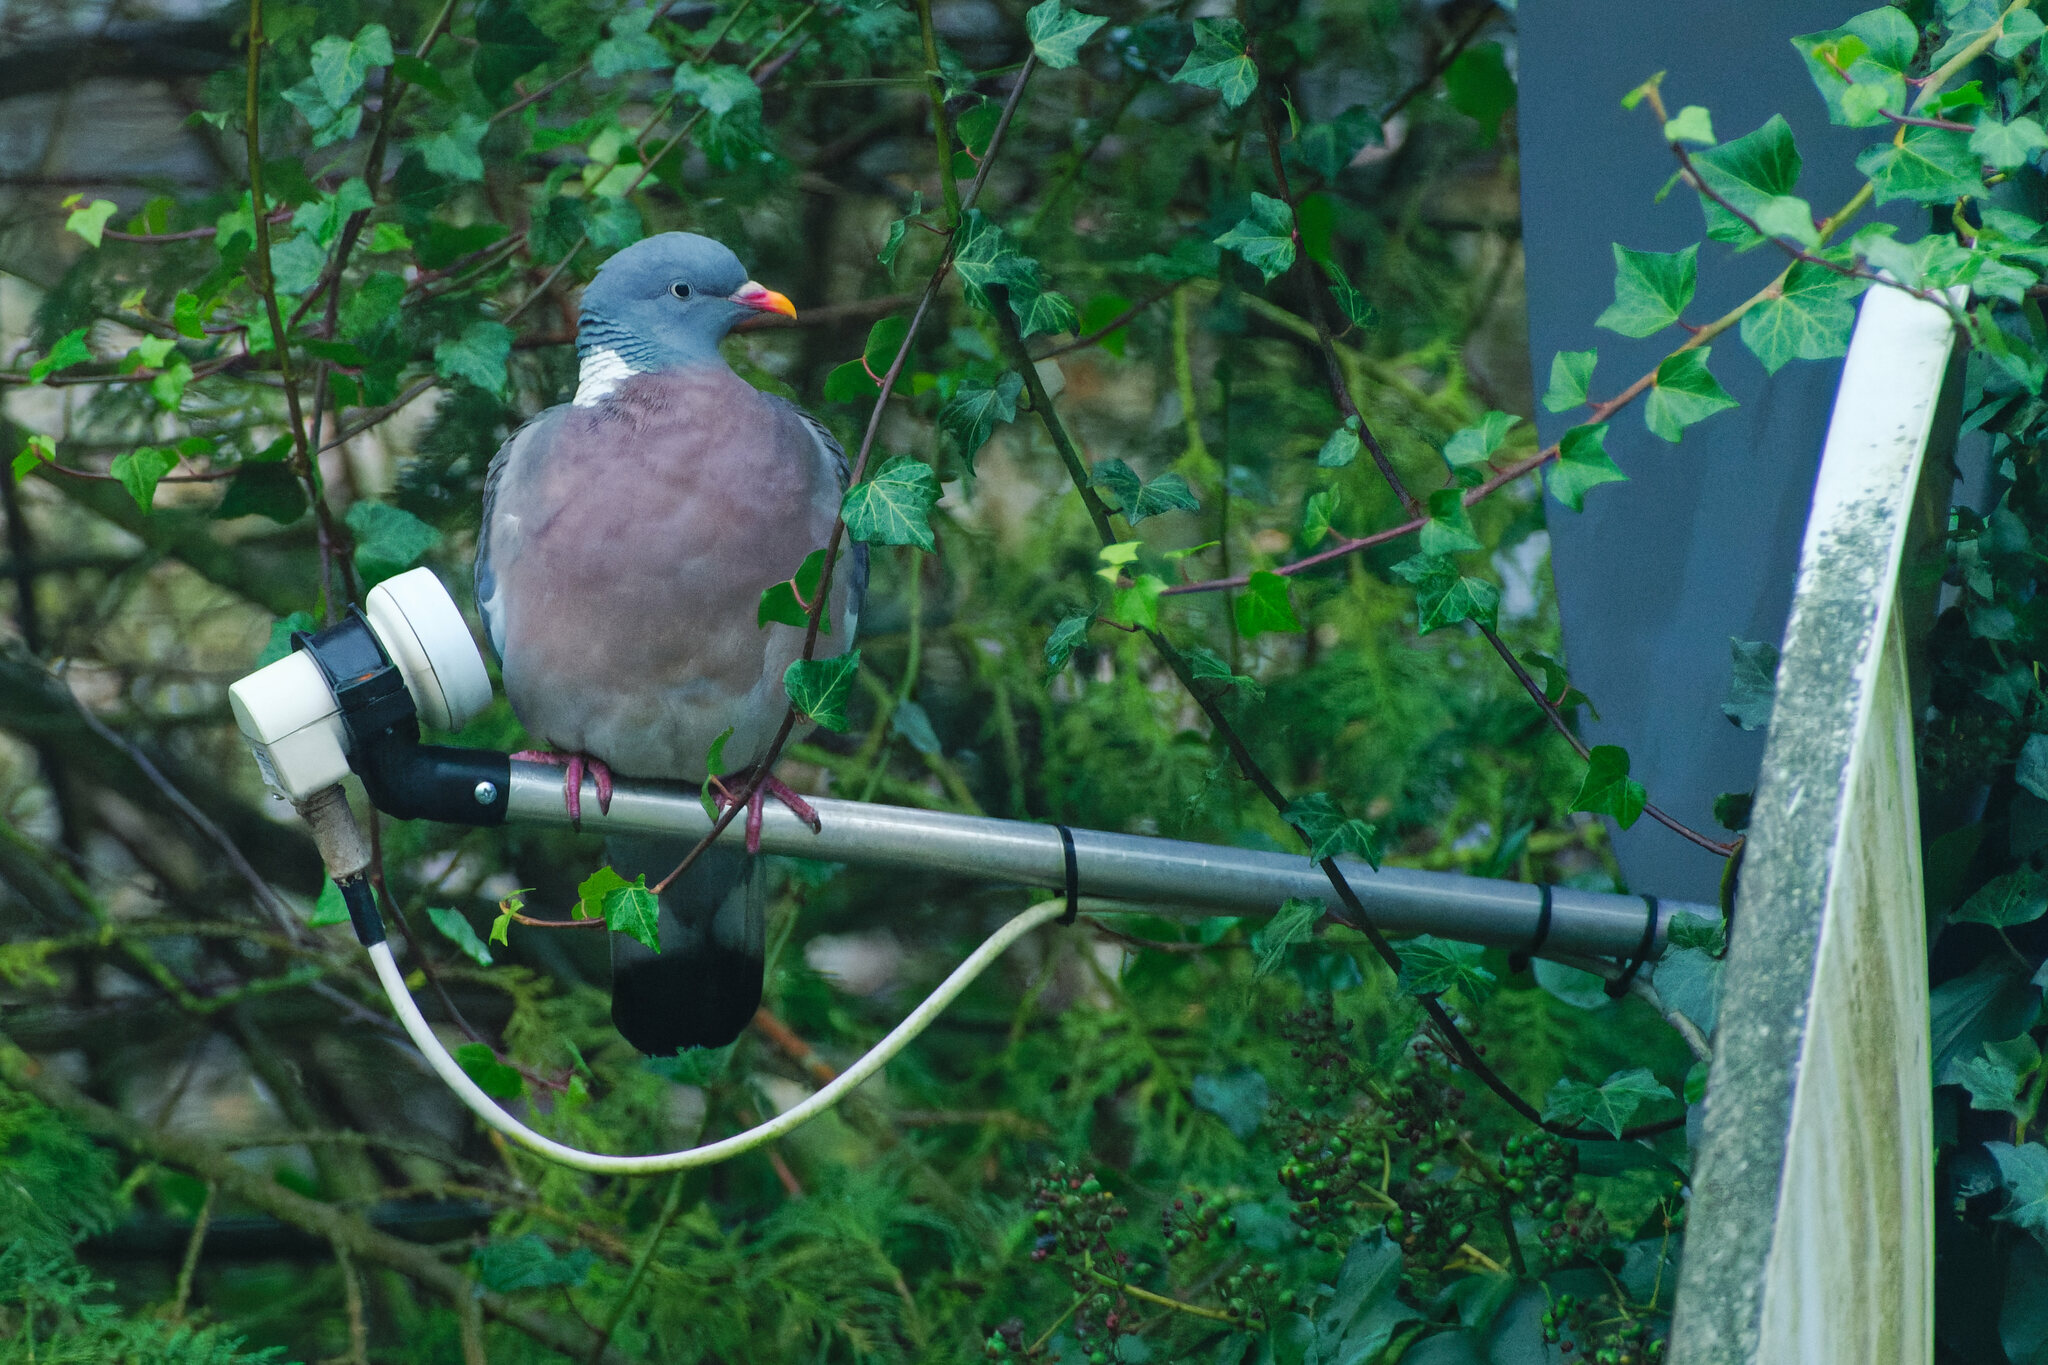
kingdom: Animalia
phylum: Chordata
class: Aves
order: Columbiformes
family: Columbidae
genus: Columba
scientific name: Columba palumbus
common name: Common wood pigeon
